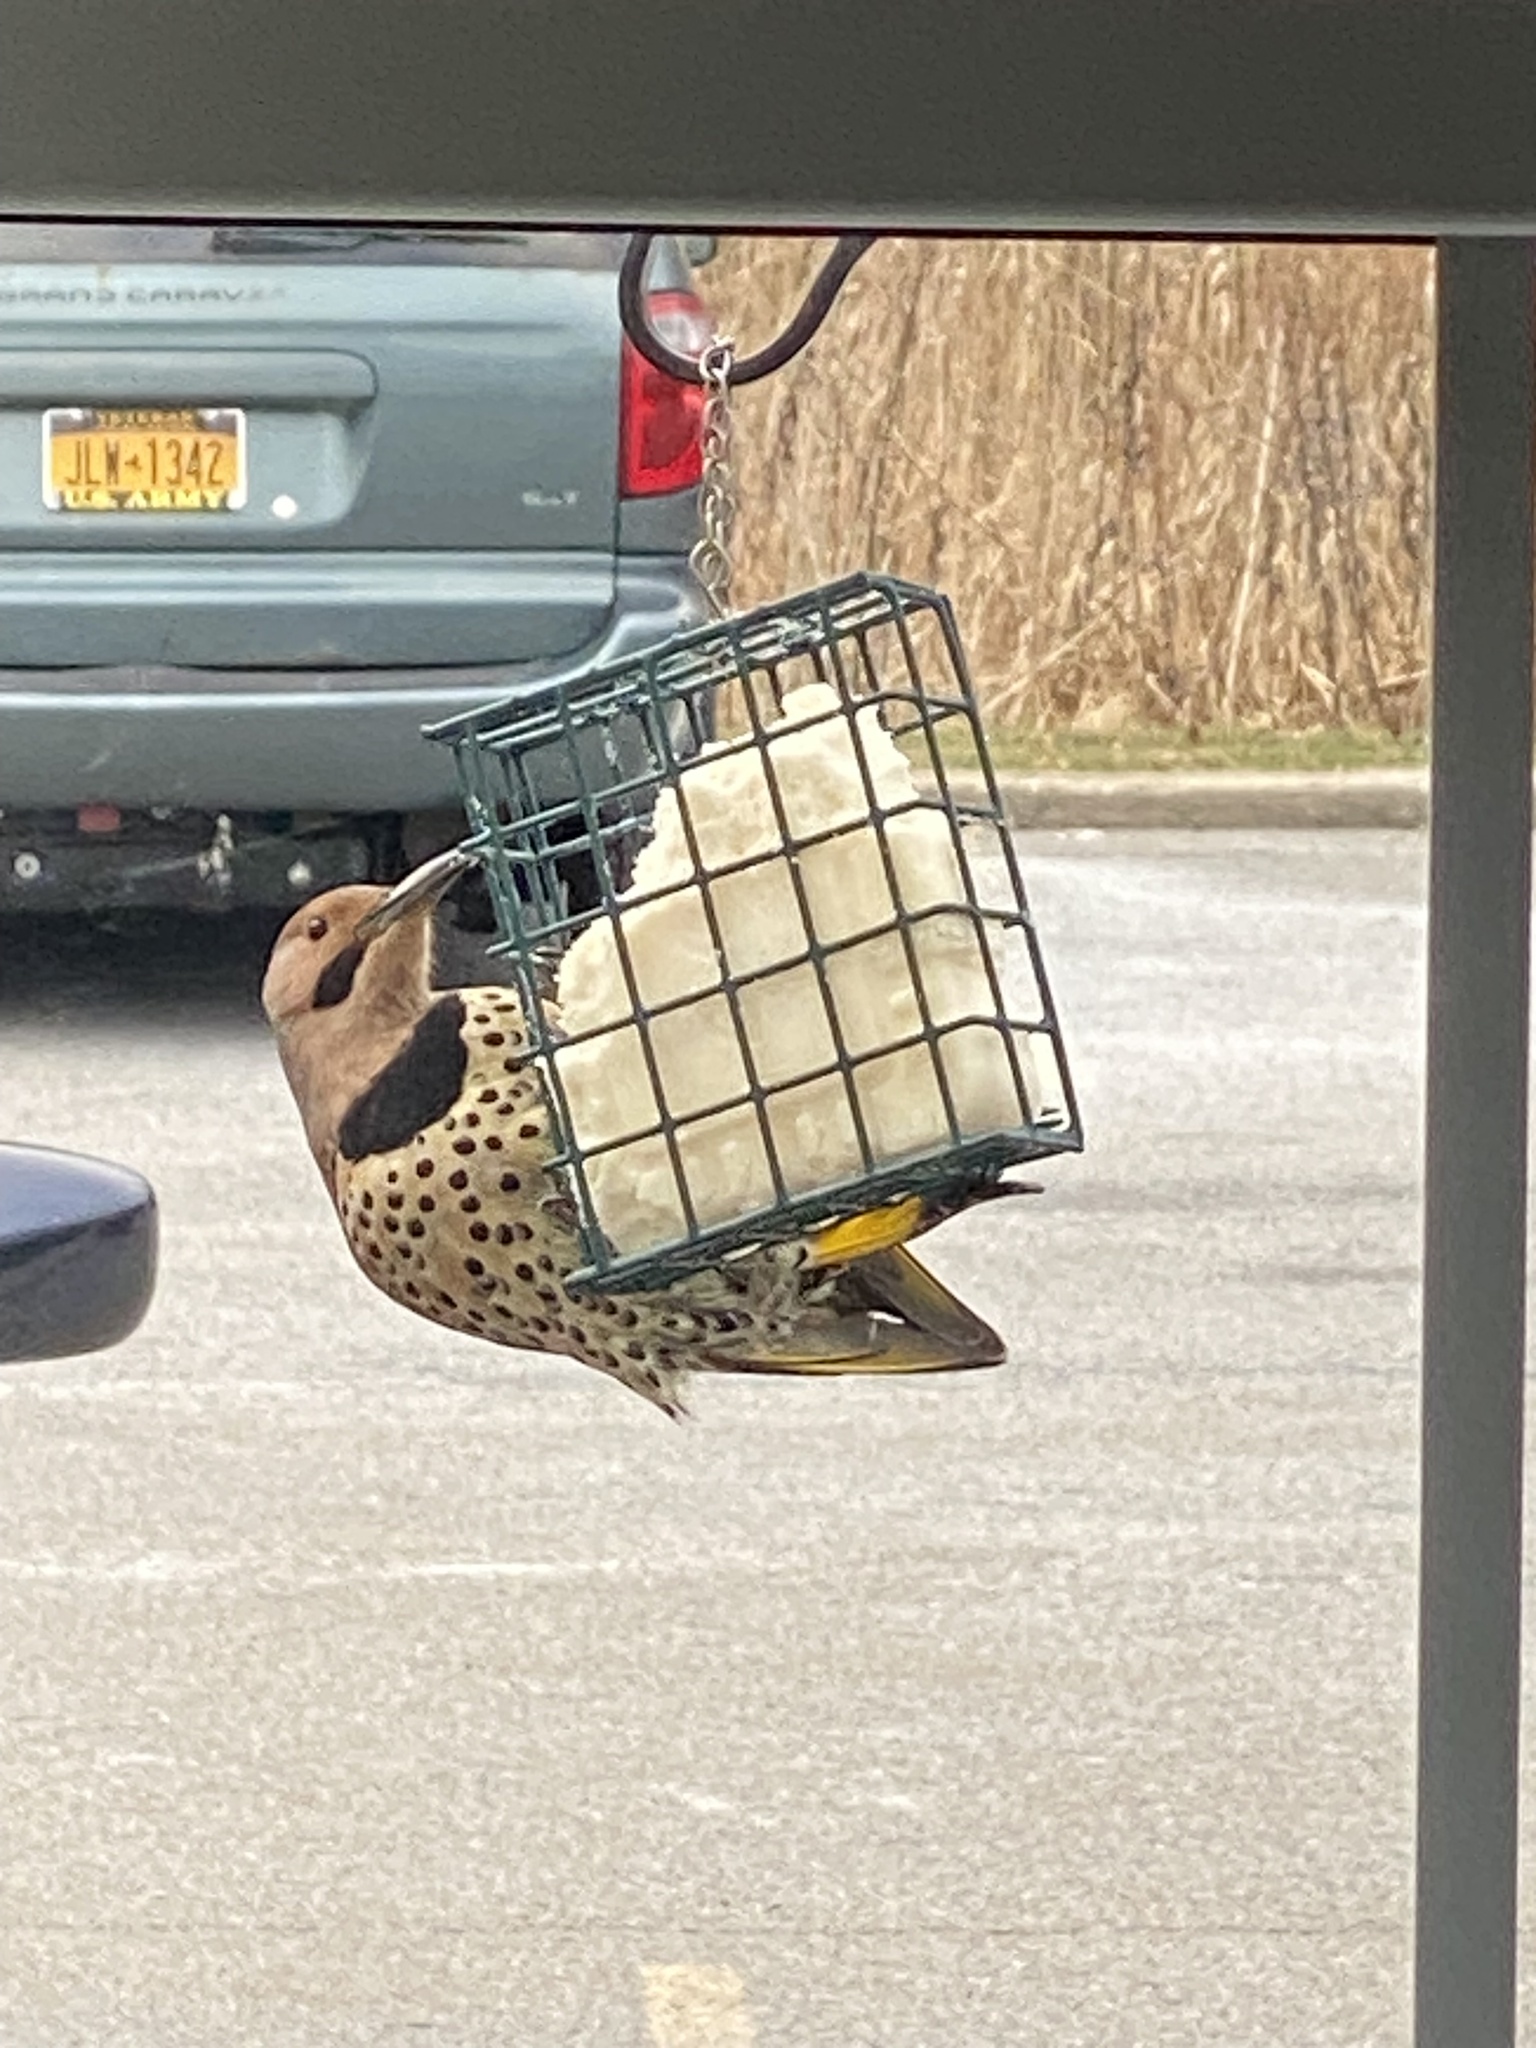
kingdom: Animalia
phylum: Chordata
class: Aves
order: Piciformes
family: Picidae
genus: Colaptes
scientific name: Colaptes auratus
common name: Northern flicker
